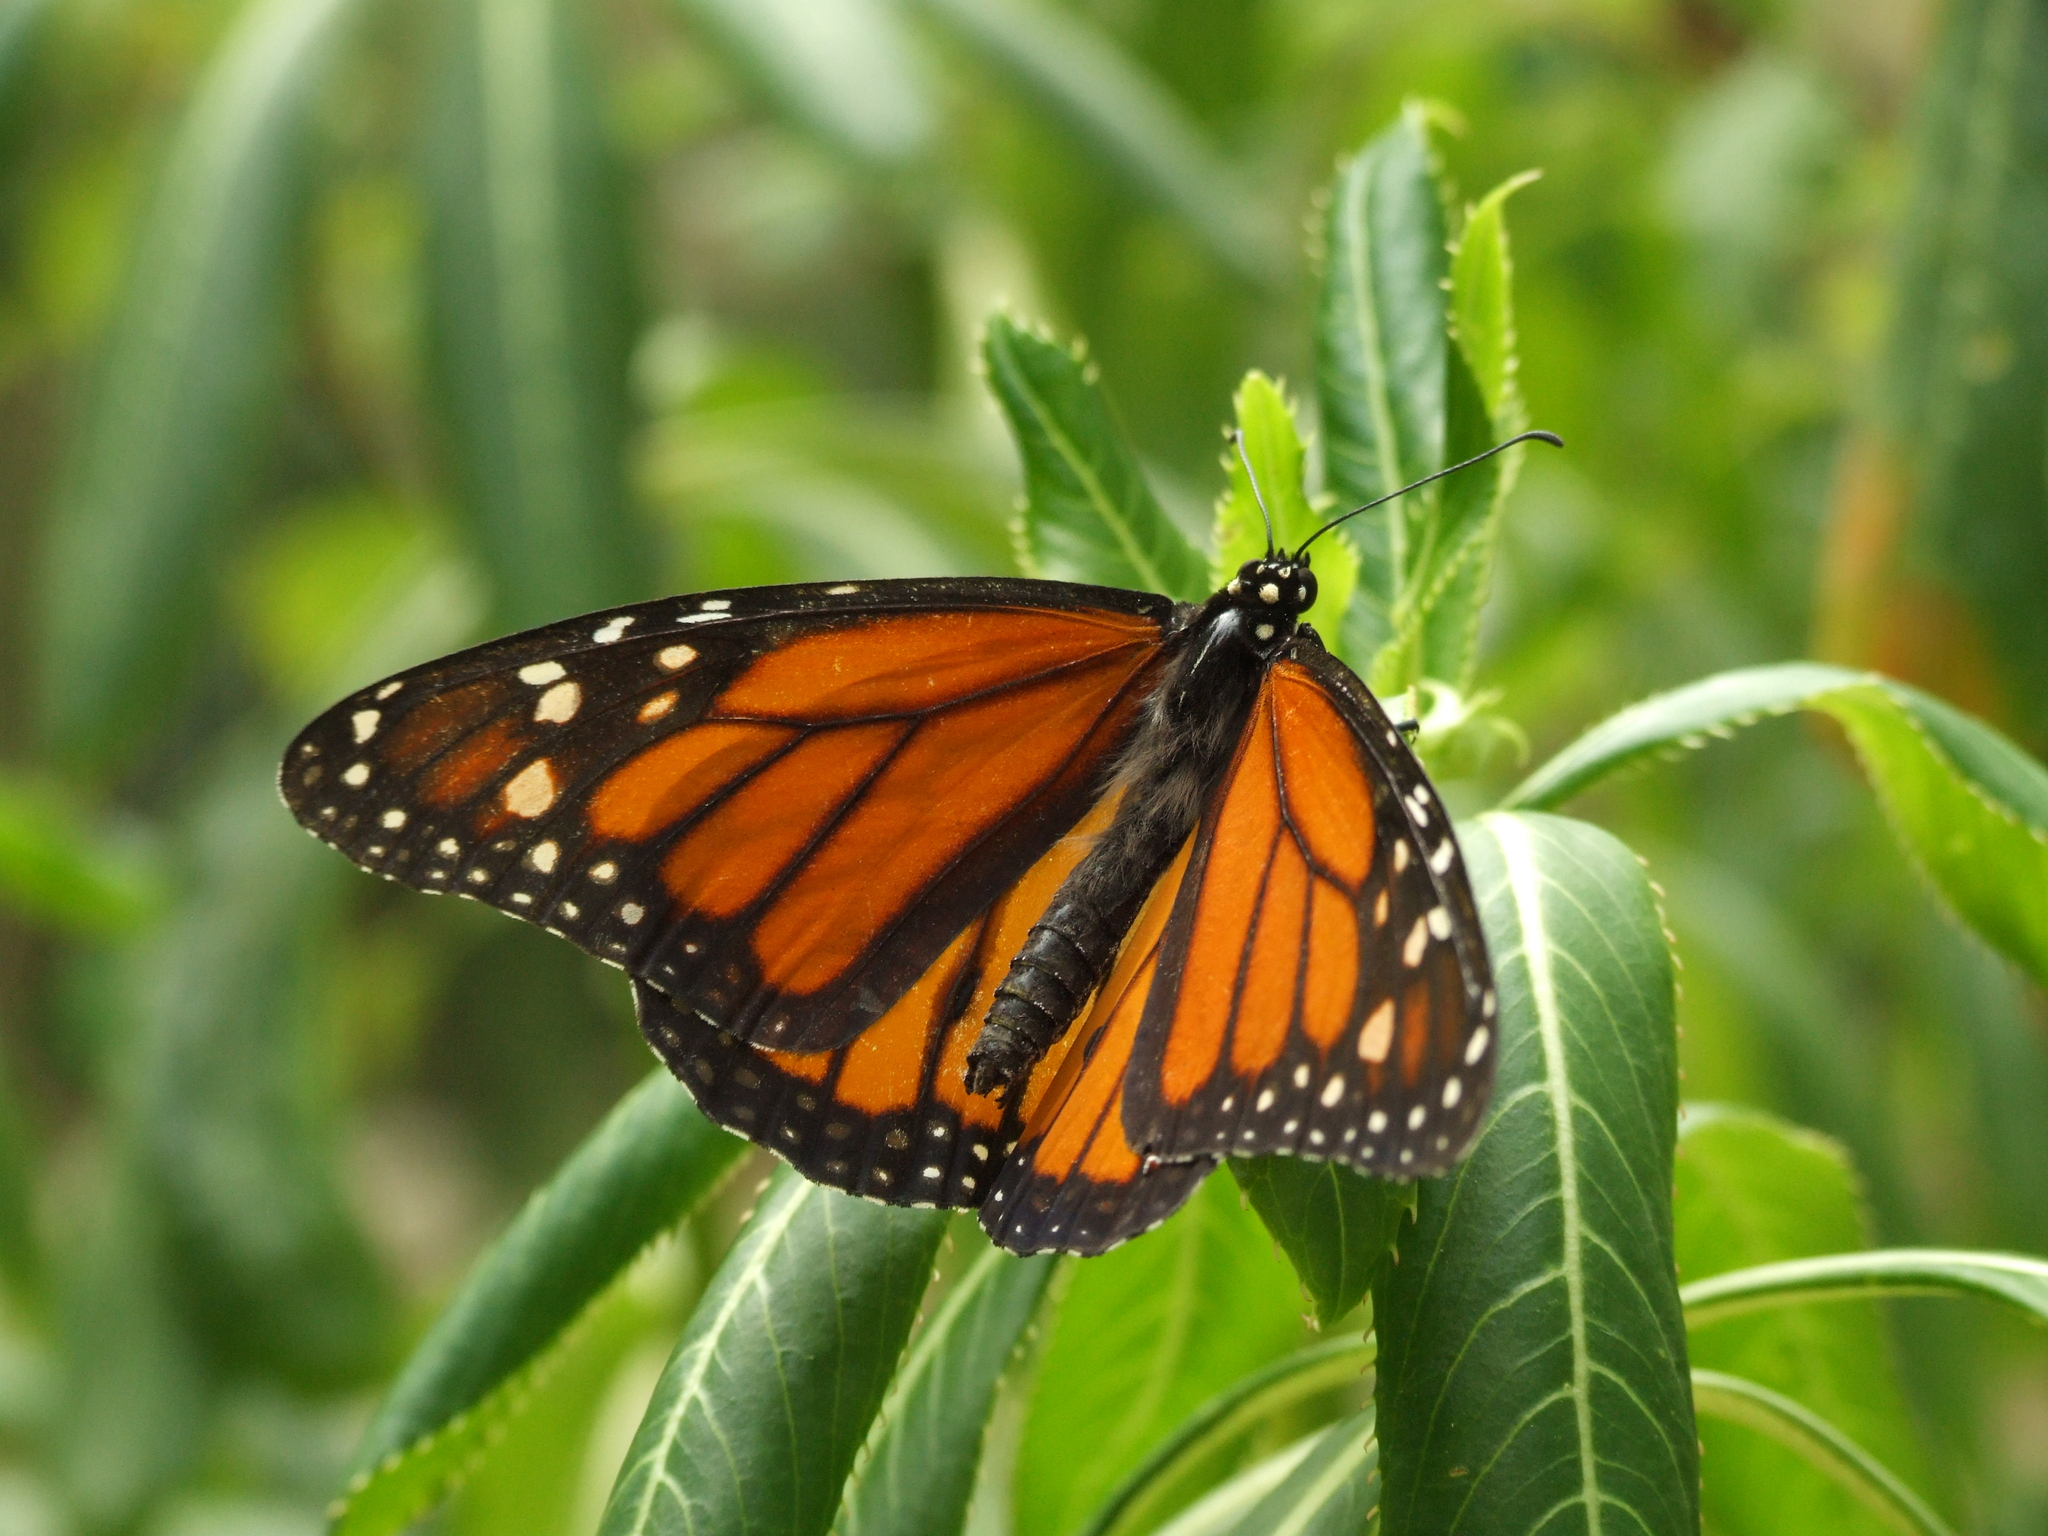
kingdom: Animalia
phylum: Arthropoda
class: Insecta
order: Lepidoptera
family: Nymphalidae
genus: Danaus
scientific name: Danaus plexippus
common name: Monarch
